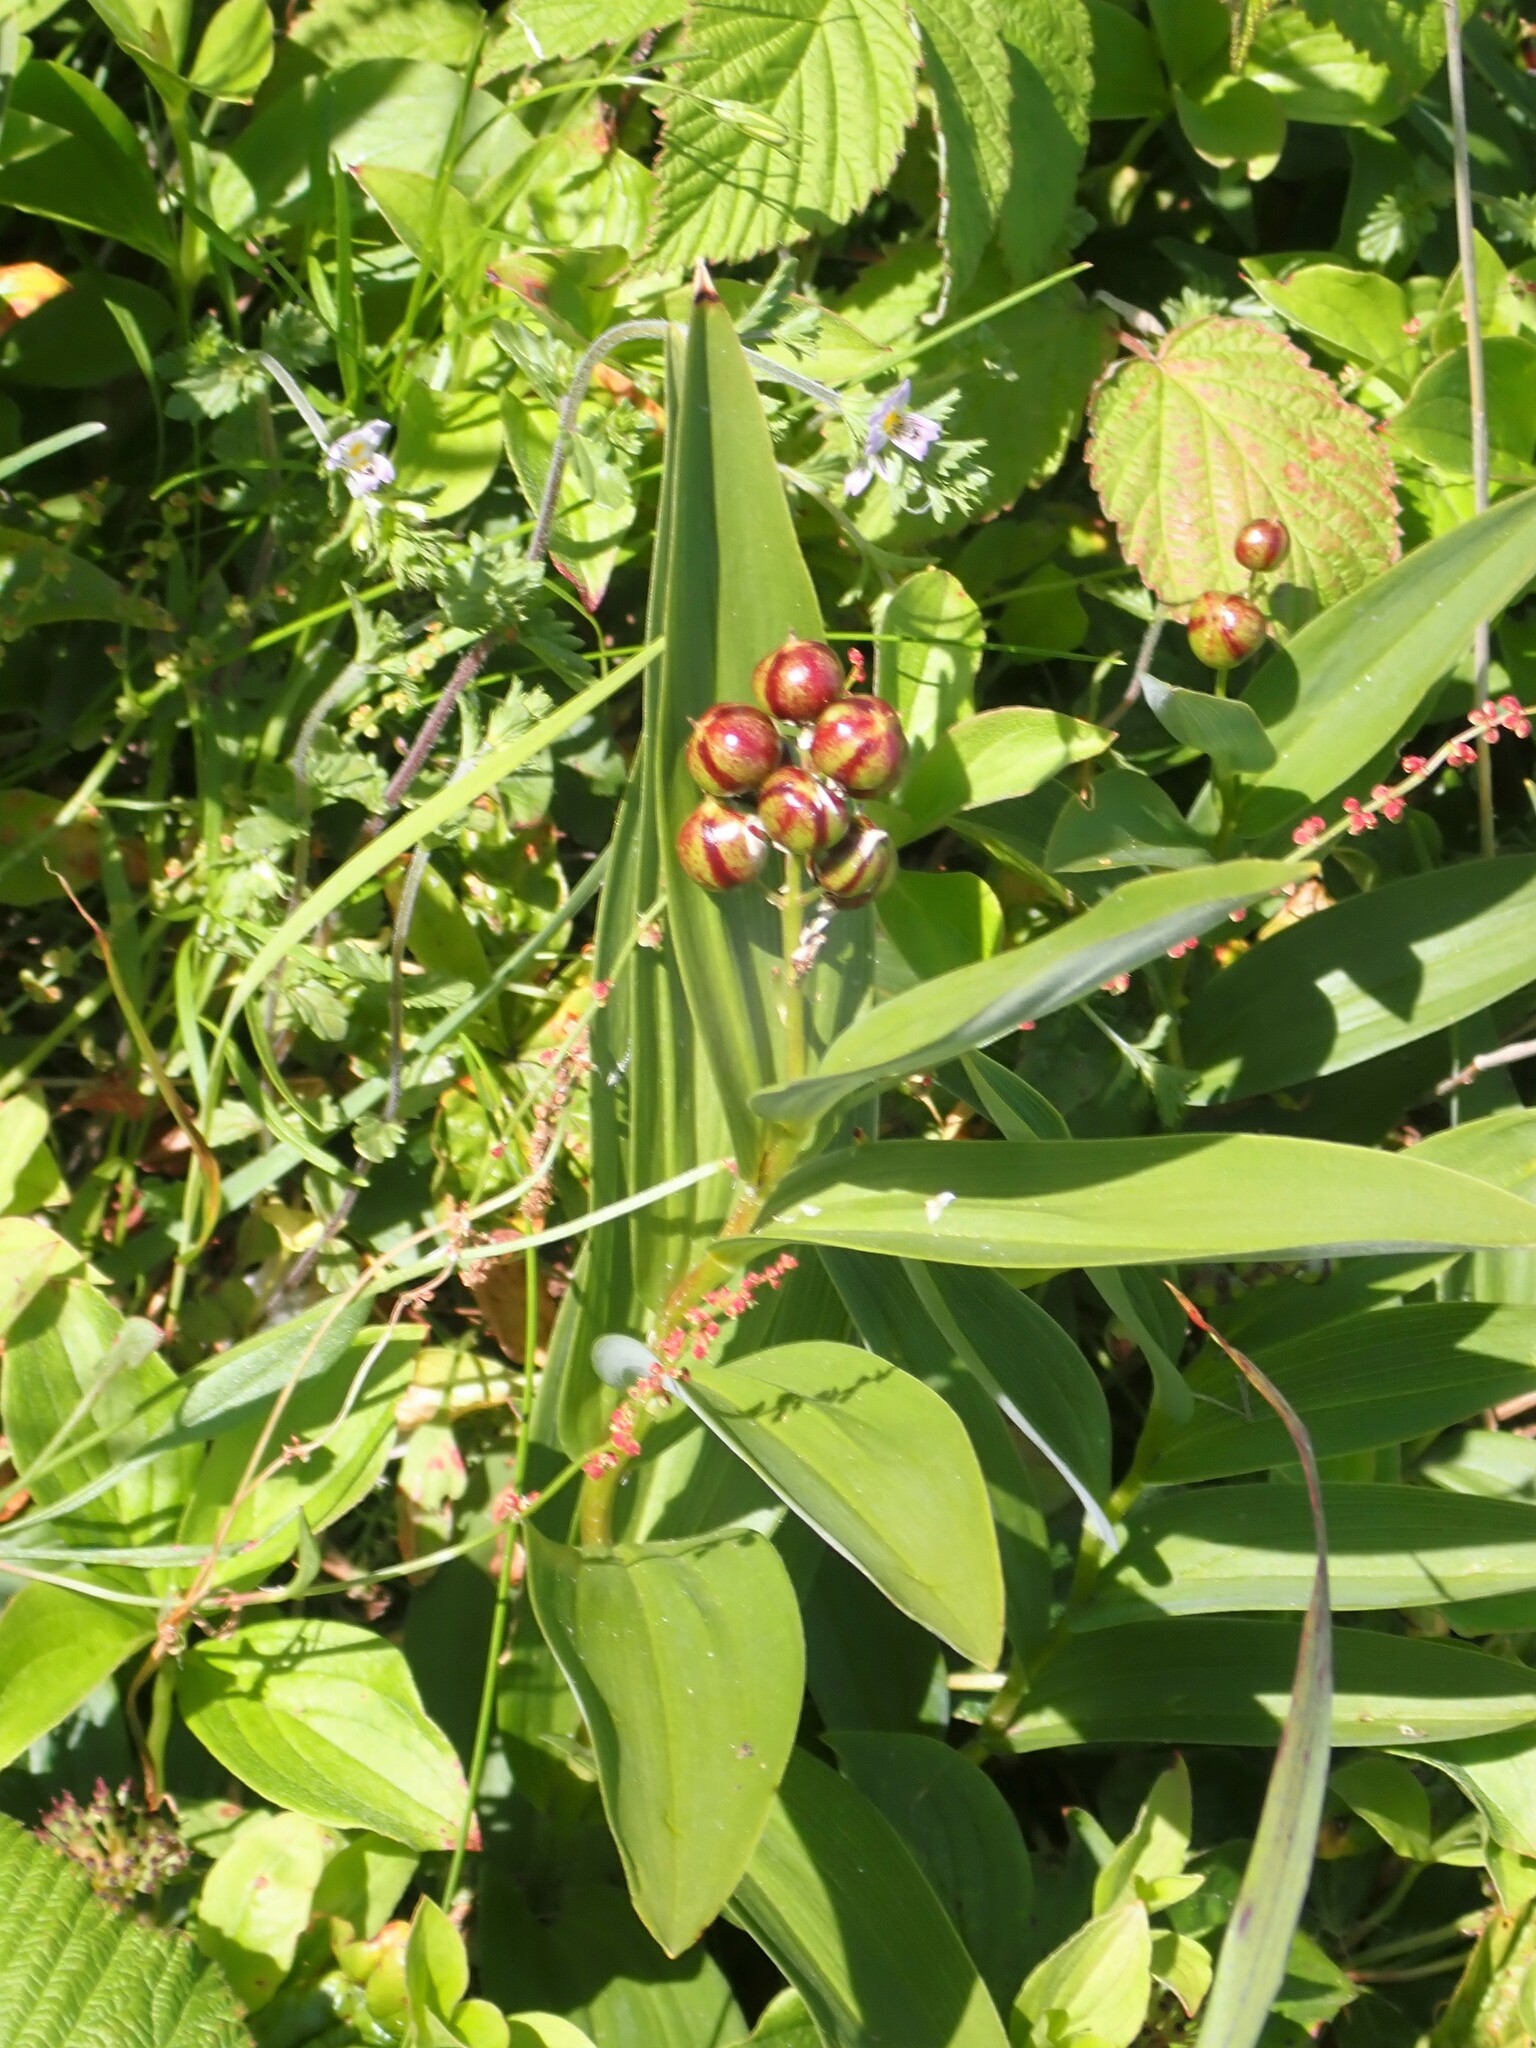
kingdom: Plantae
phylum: Tracheophyta
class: Liliopsida
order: Asparagales
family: Asparagaceae
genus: Maianthemum
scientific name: Maianthemum stellatum
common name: Little false solomon's seal
